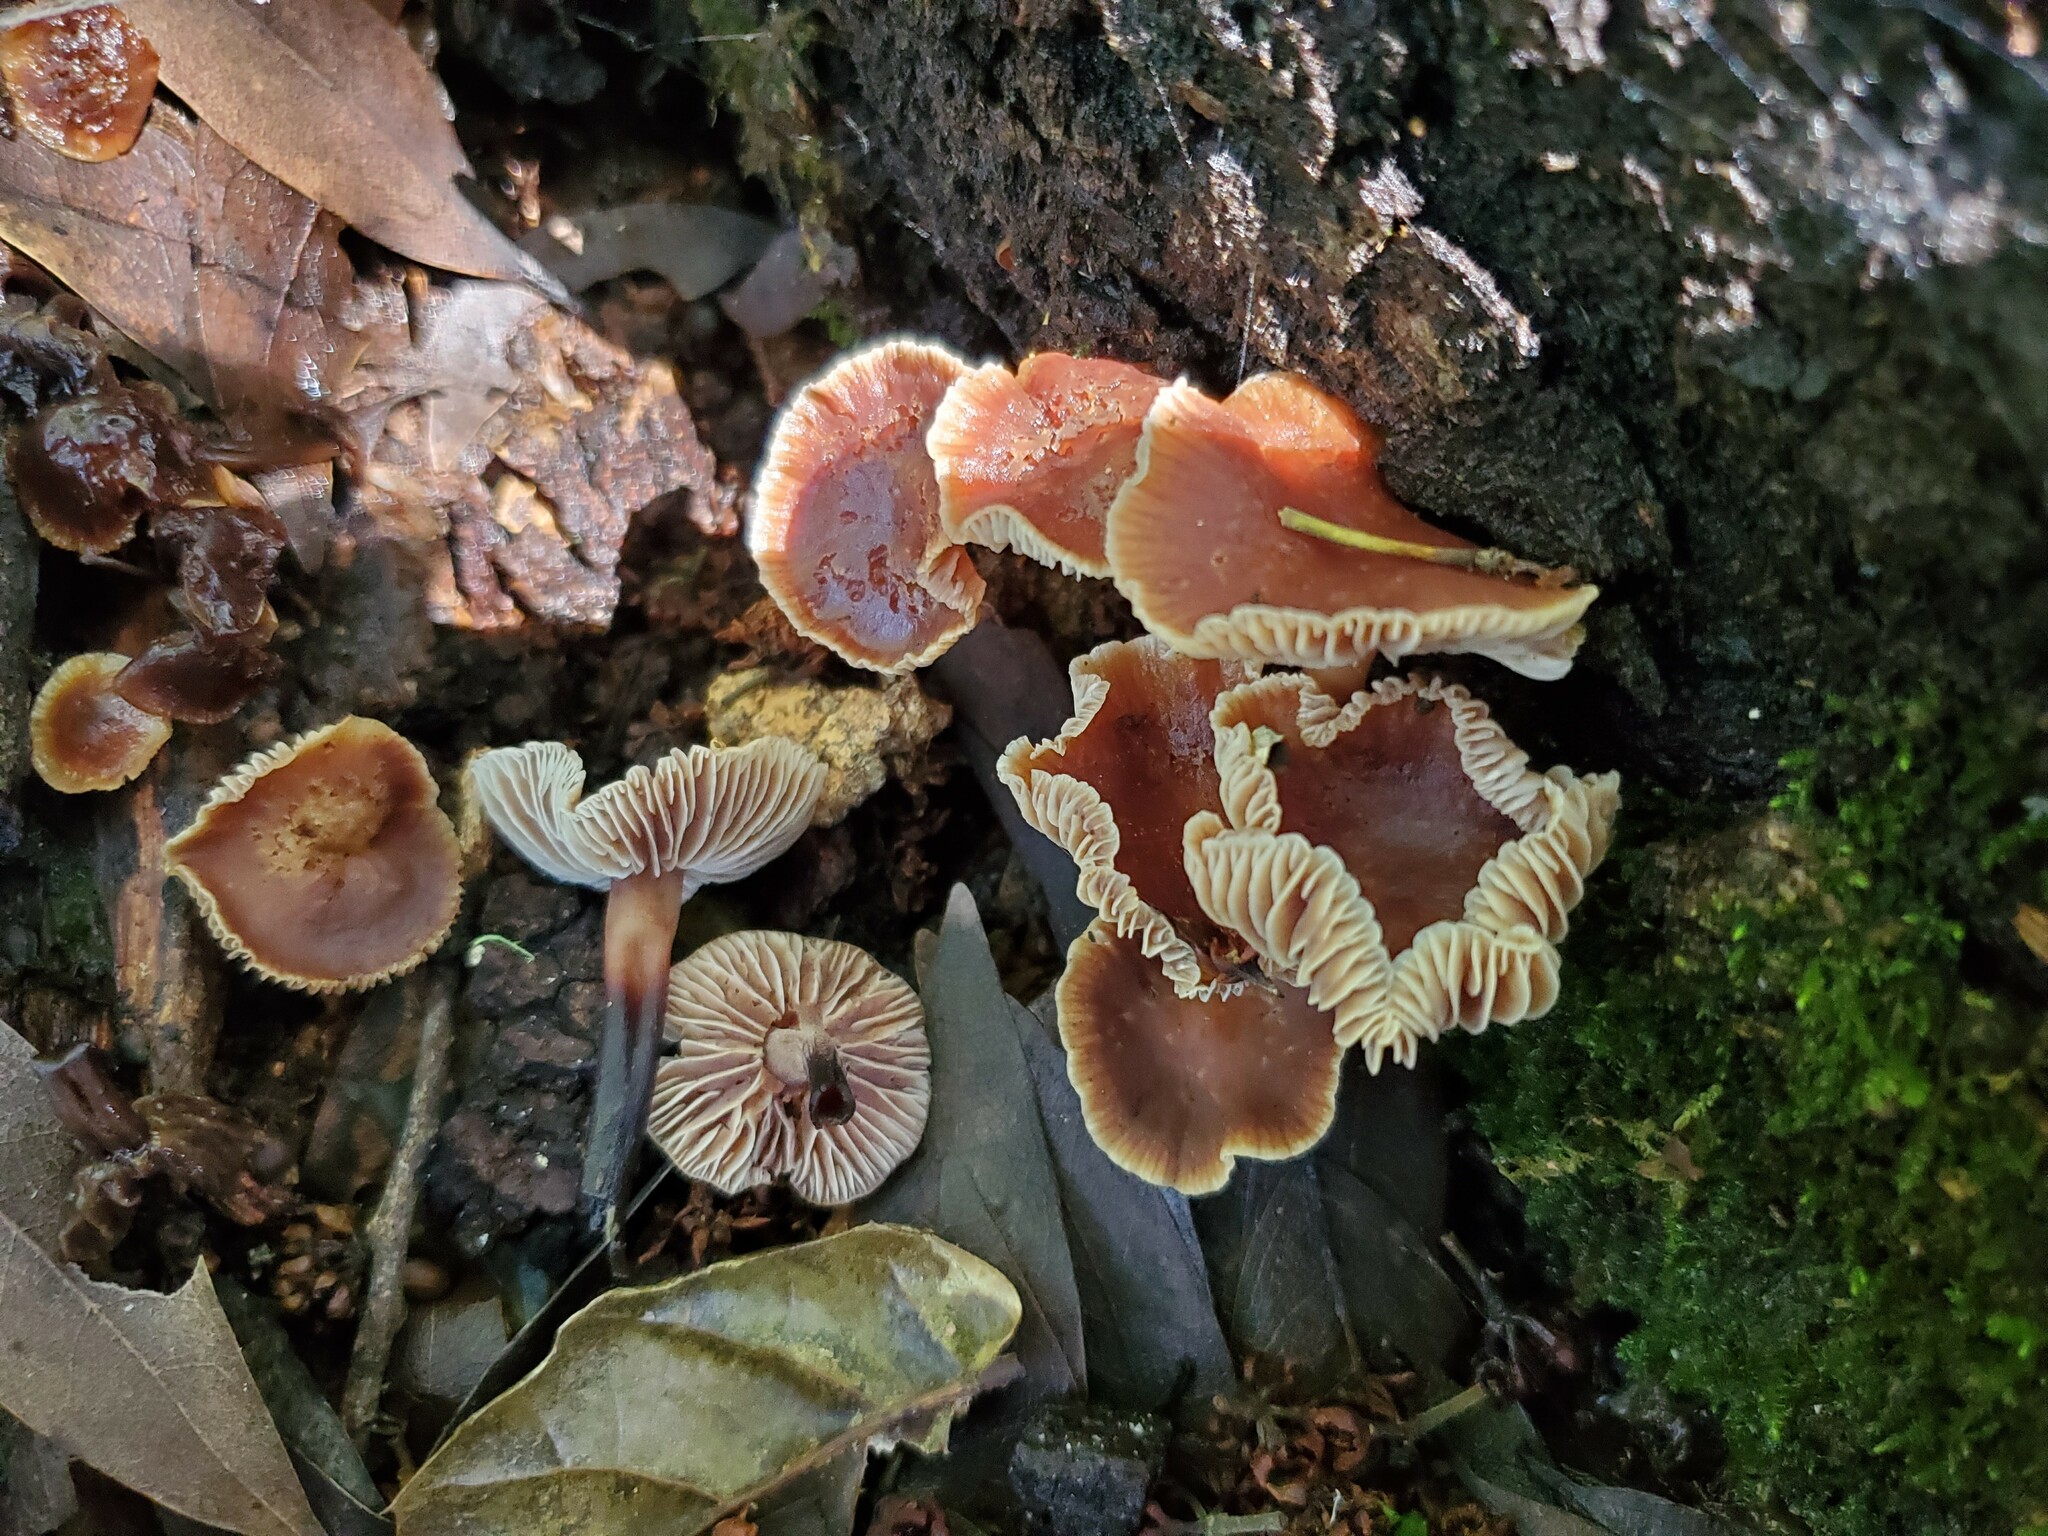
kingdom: Fungi
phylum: Basidiomycota
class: Agaricomycetes
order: Agaricales
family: Omphalotaceae
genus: Gymnopus
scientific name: Gymnopus brassicolens
